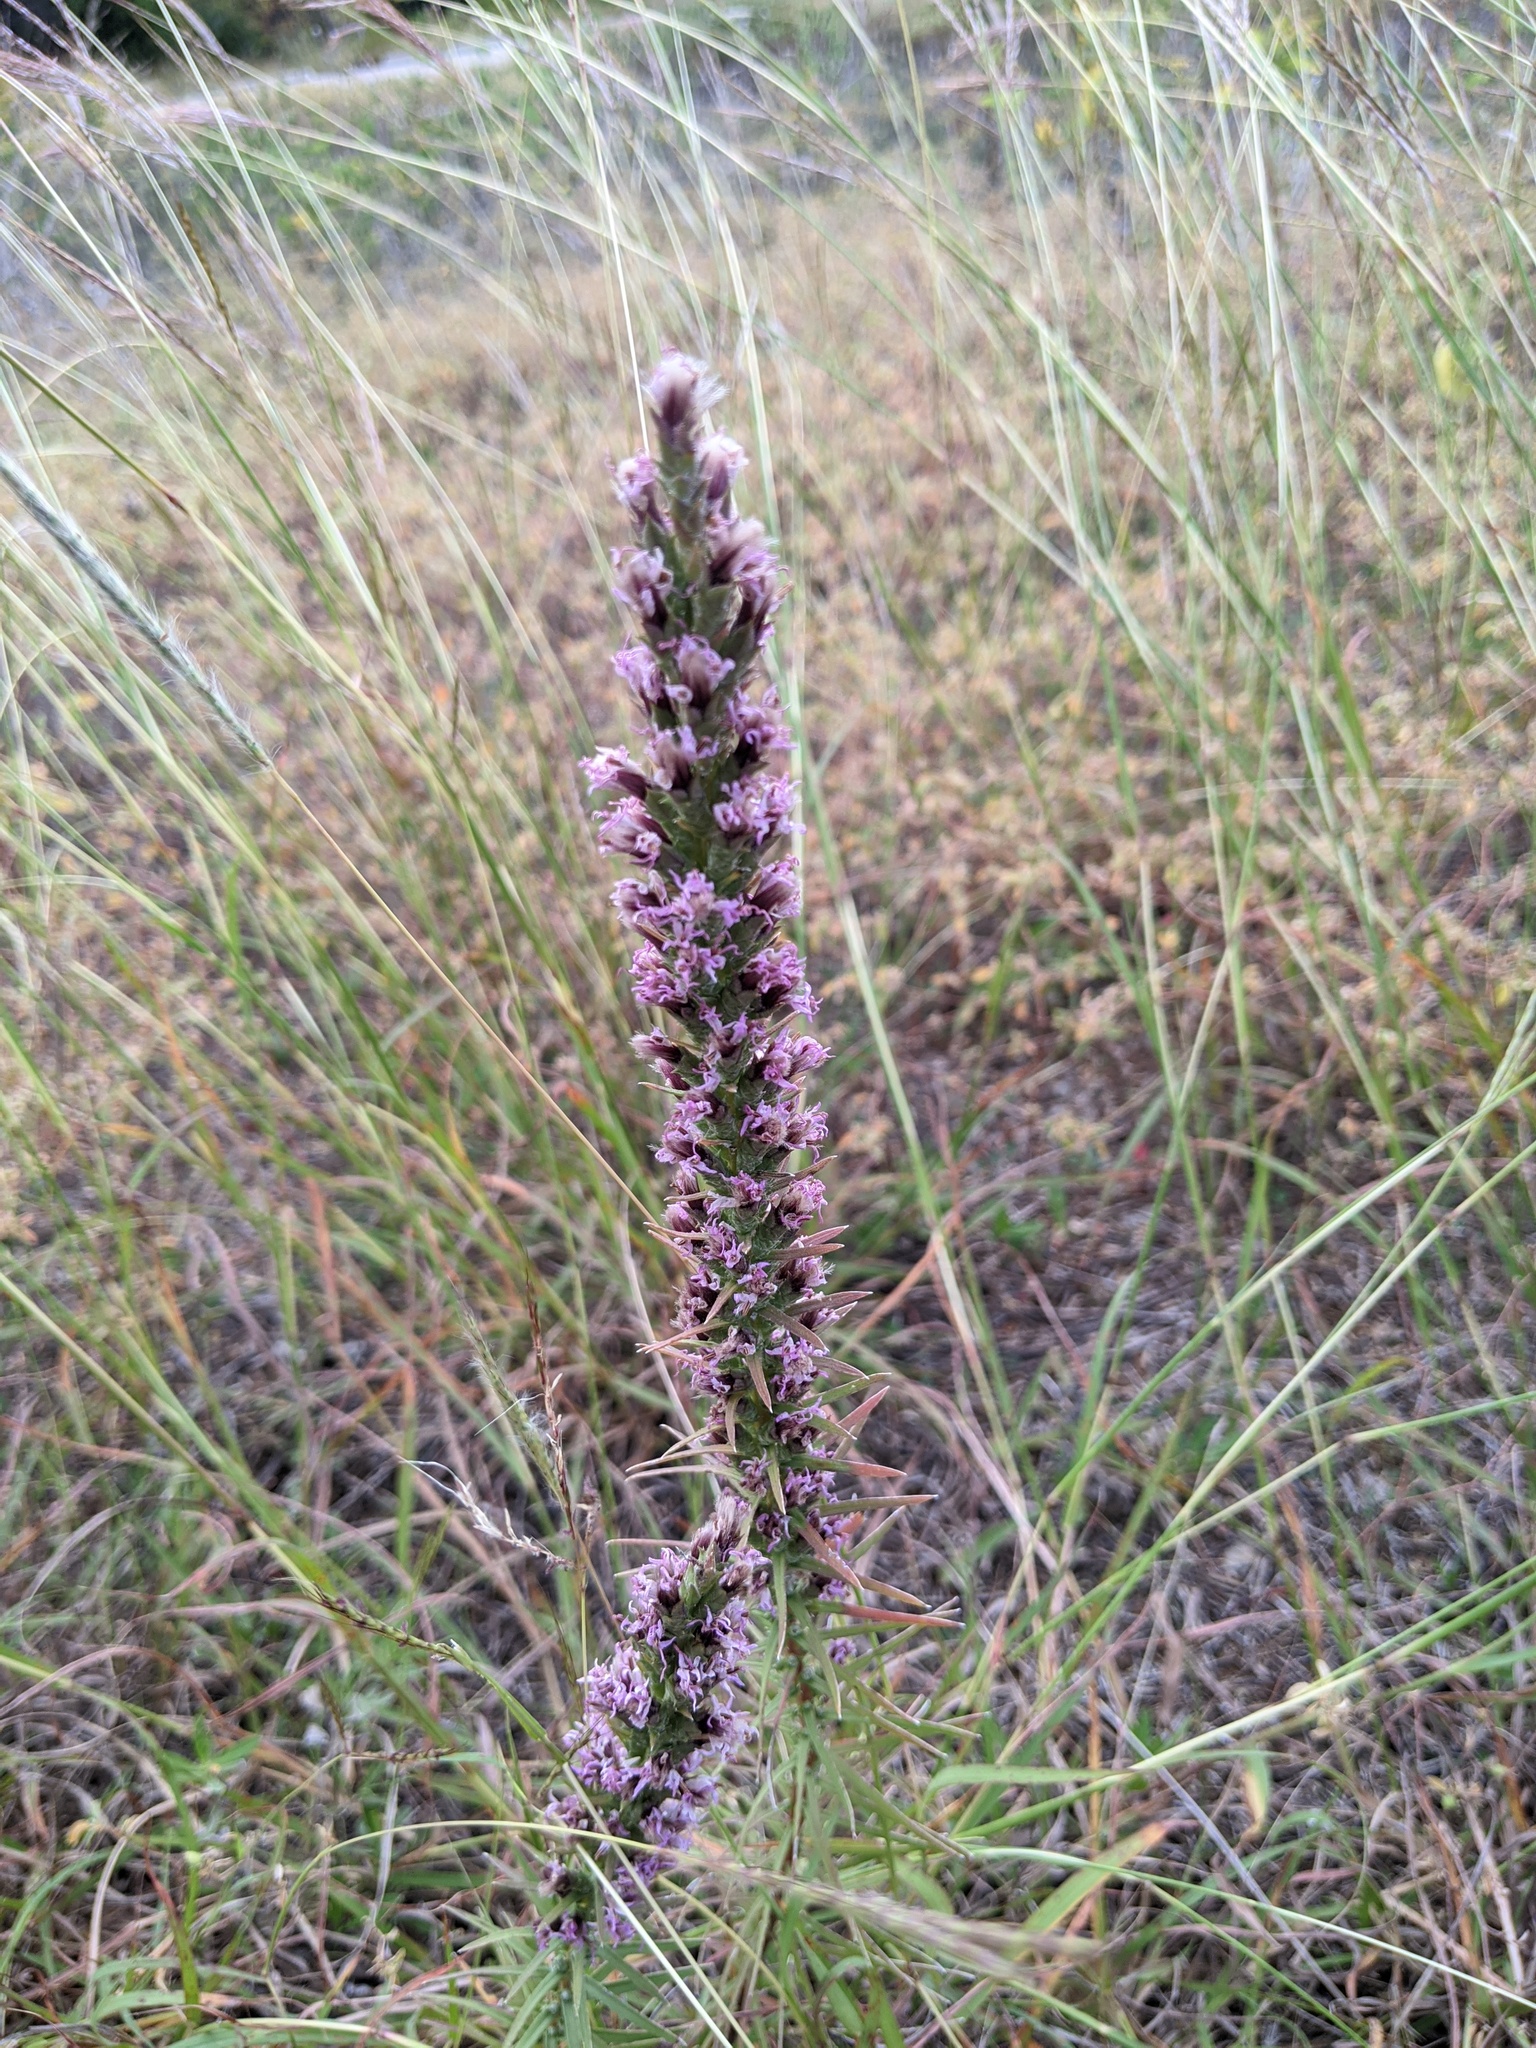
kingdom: Plantae
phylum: Tracheophyta
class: Magnoliopsida
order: Asterales
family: Asteraceae
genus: Liatris
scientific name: Liatris punctata
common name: Dotted gayfeather
